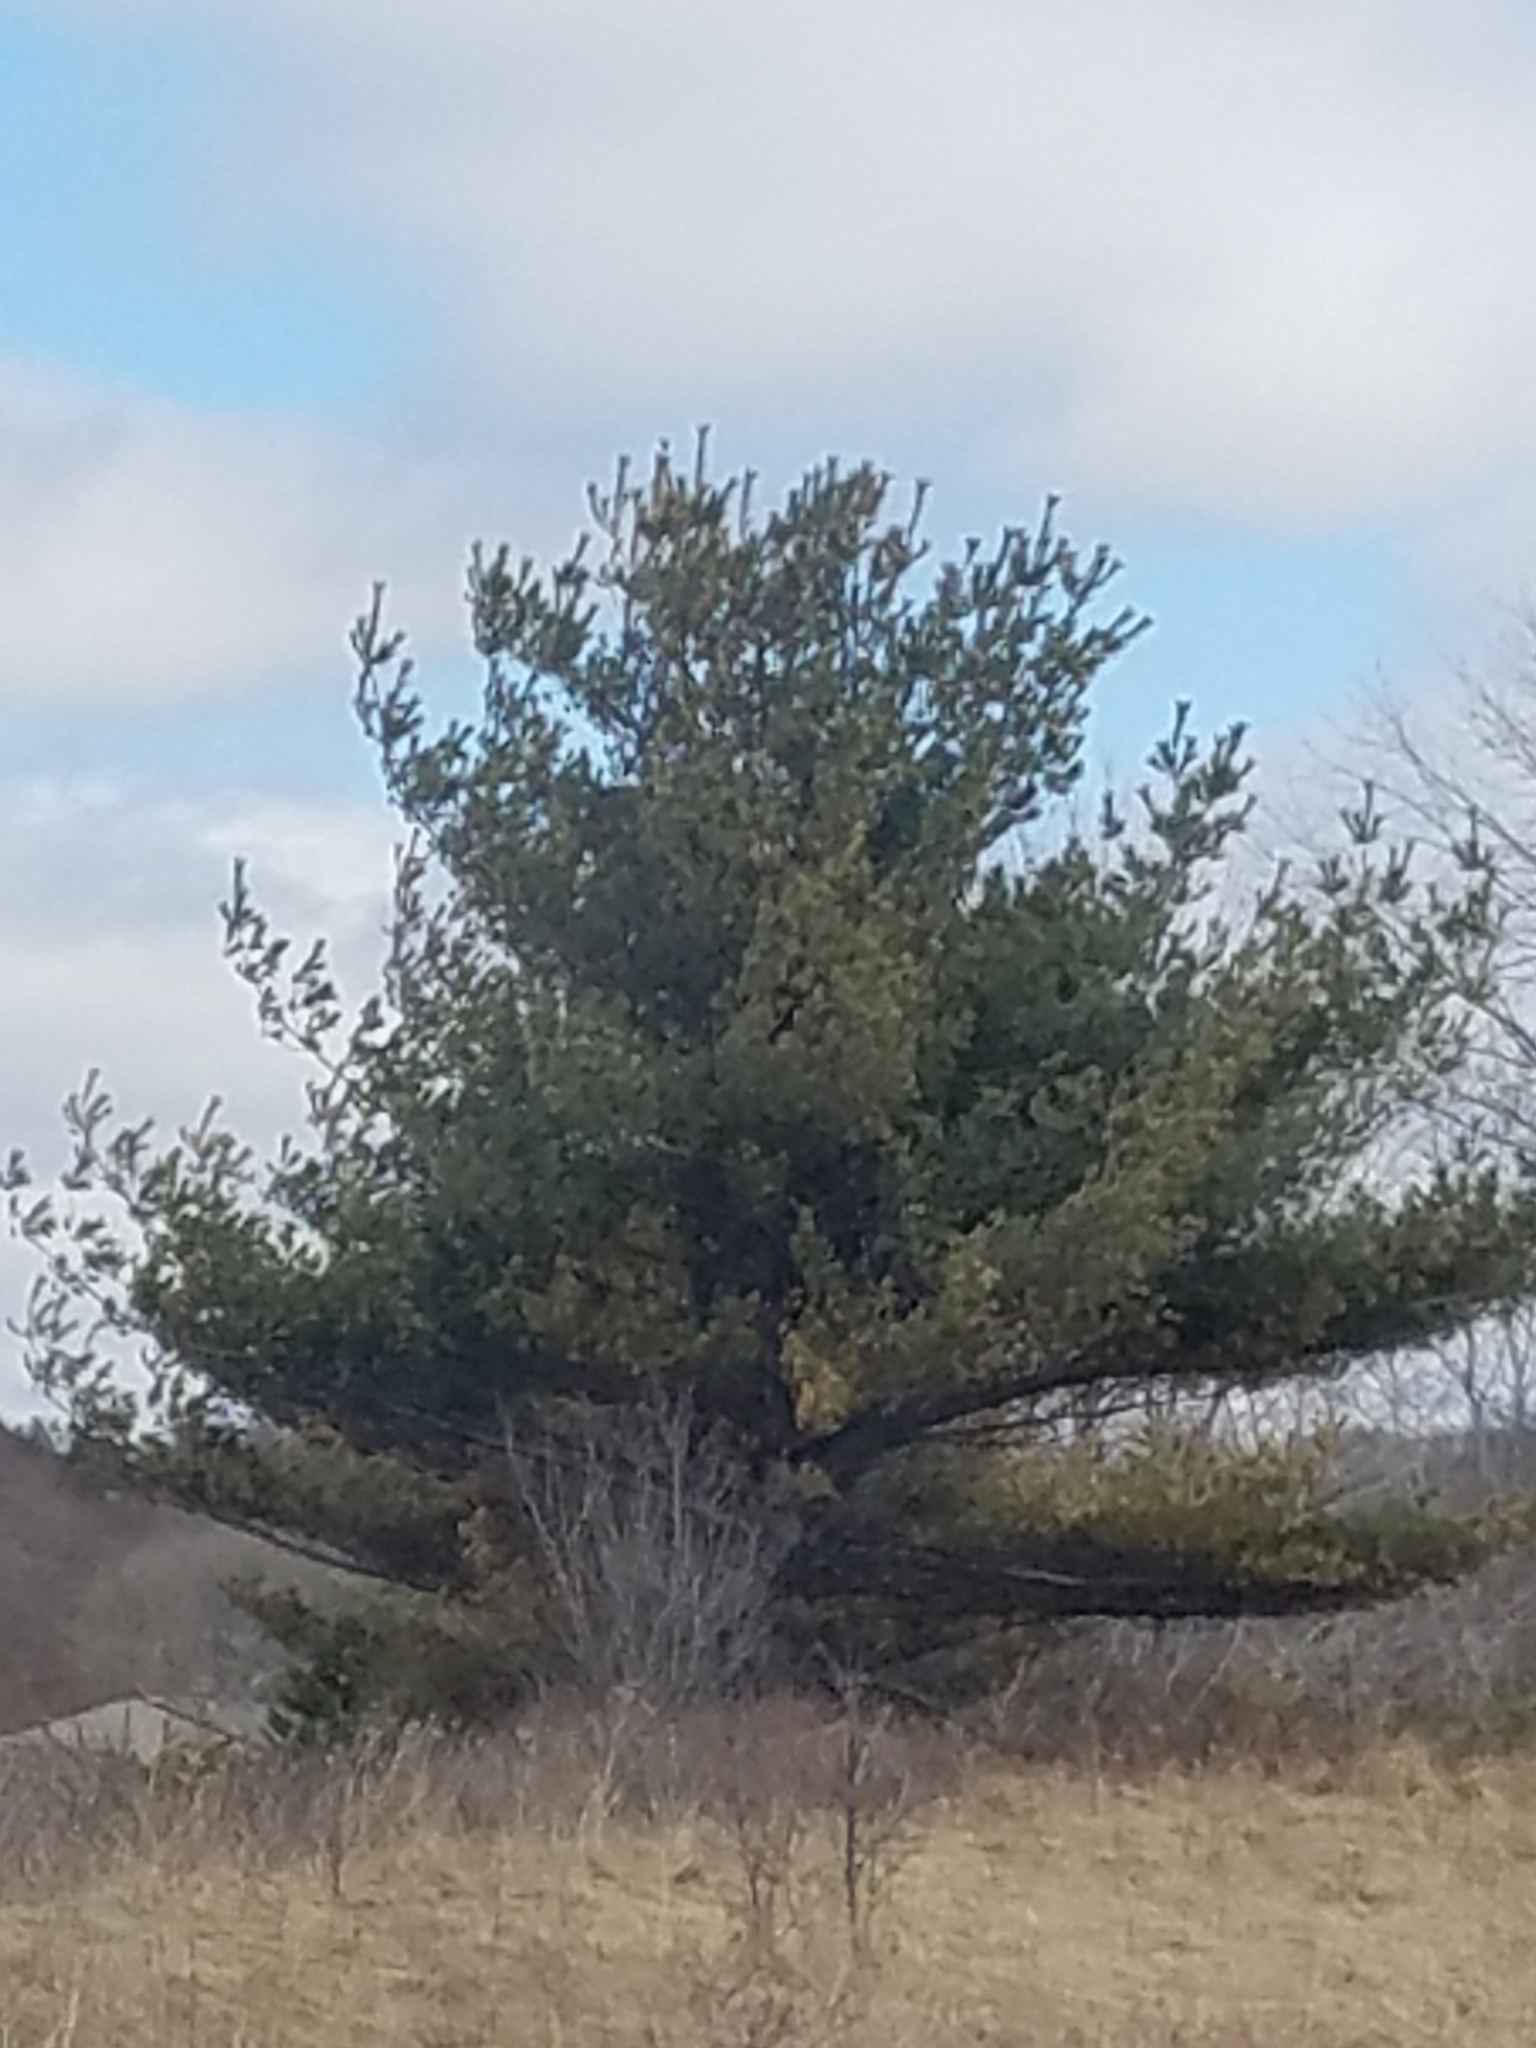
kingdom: Plantae
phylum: Tracheophyta
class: Pinopsida
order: Pinales
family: Pinaceae
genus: Pinus
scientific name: Pinus strobus
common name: Weymouth pine
